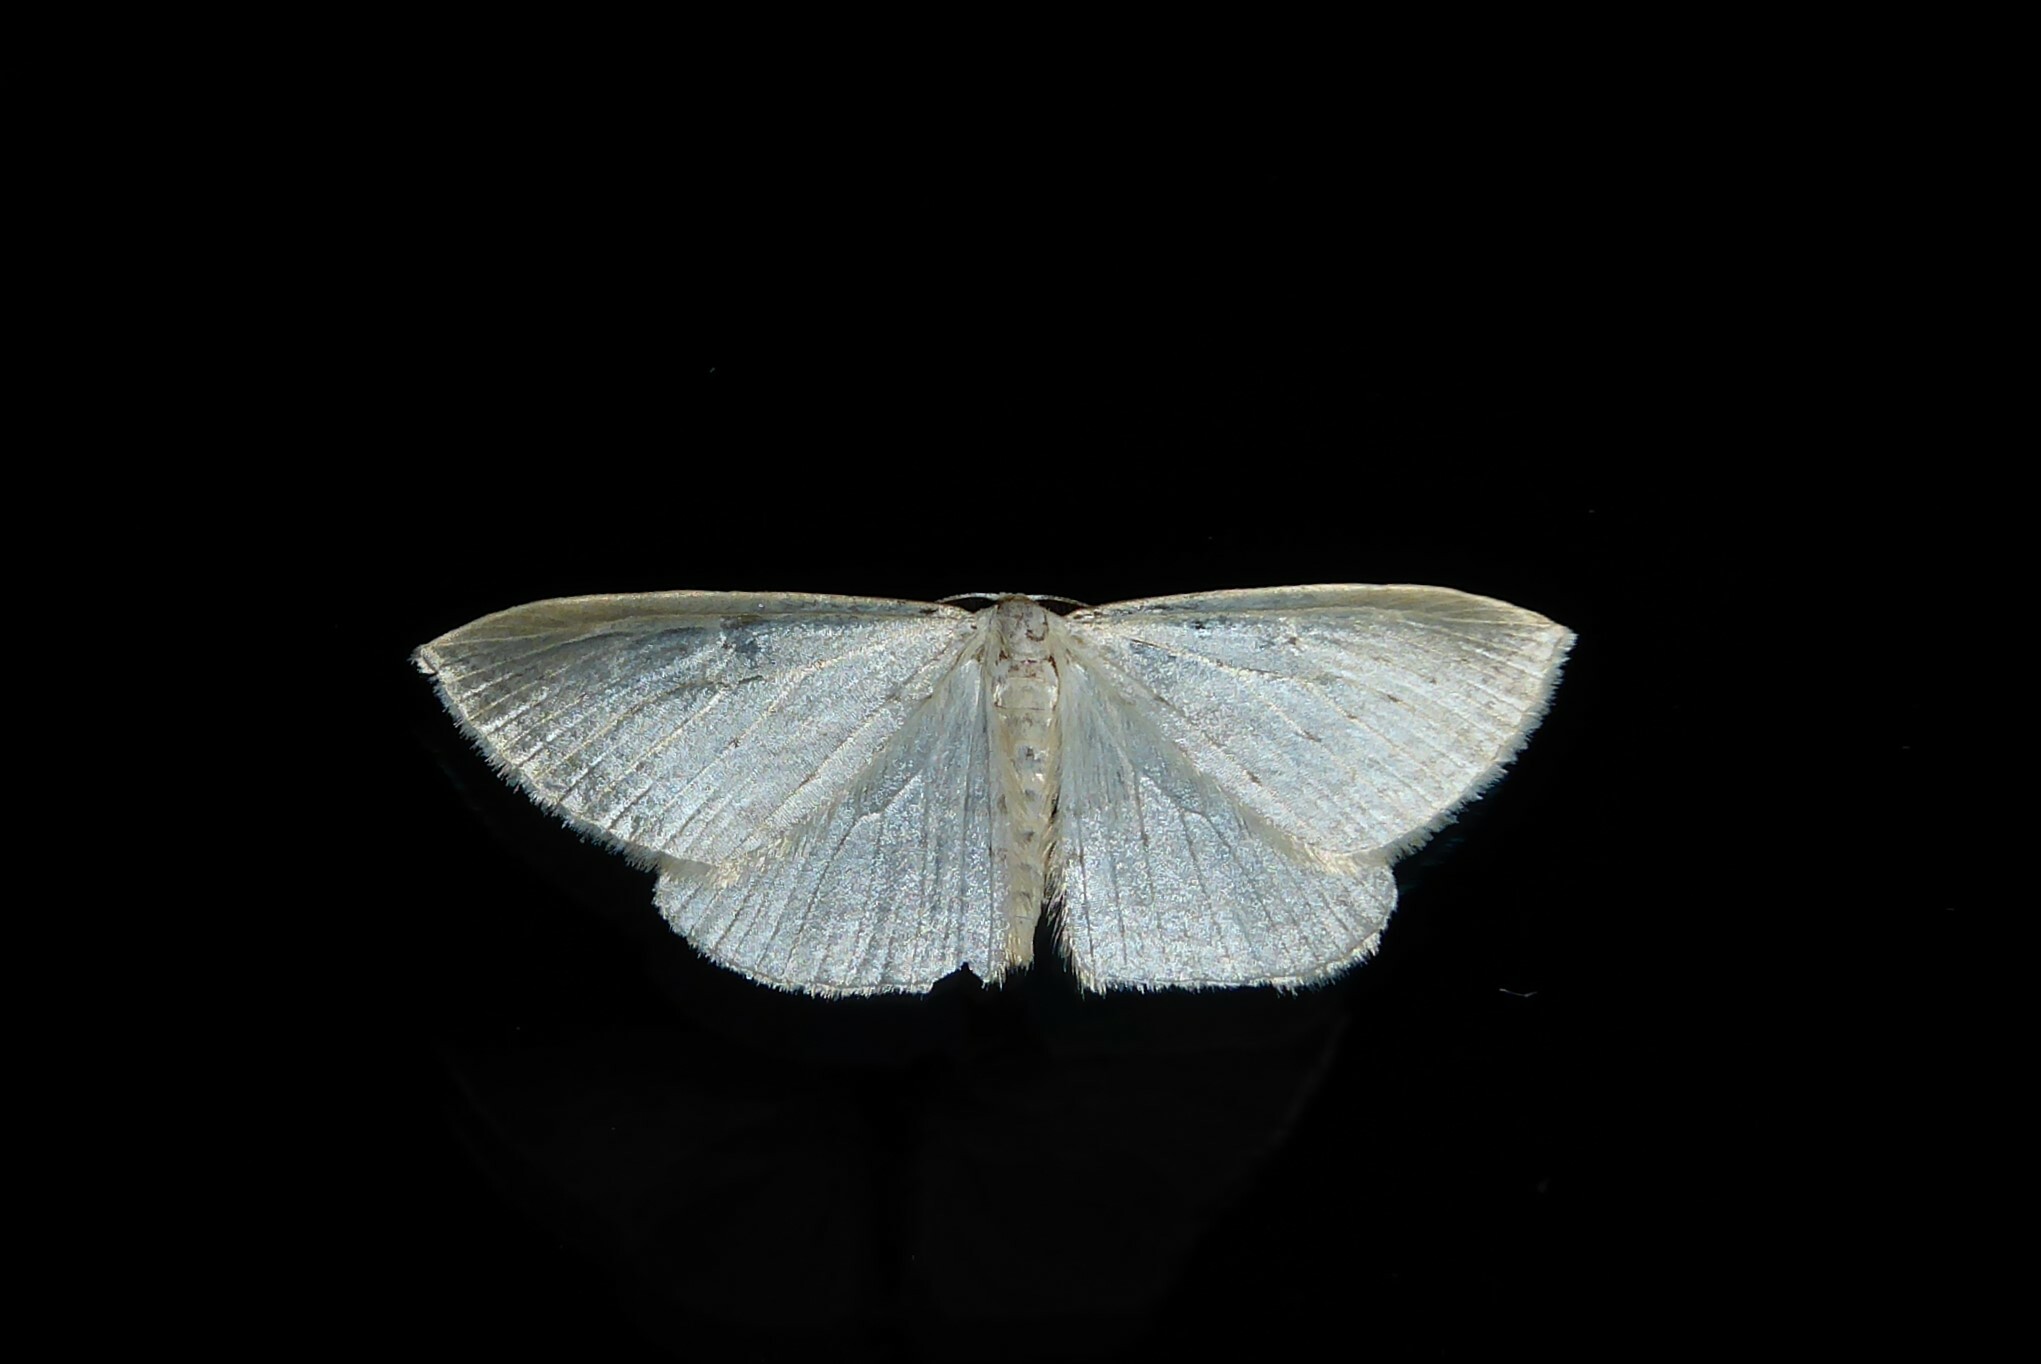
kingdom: Animalia
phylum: Arthropoda
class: Insecta
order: Lepidoptera
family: Geometridae
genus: Orthoclydon
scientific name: Orthoclydon praefectata
